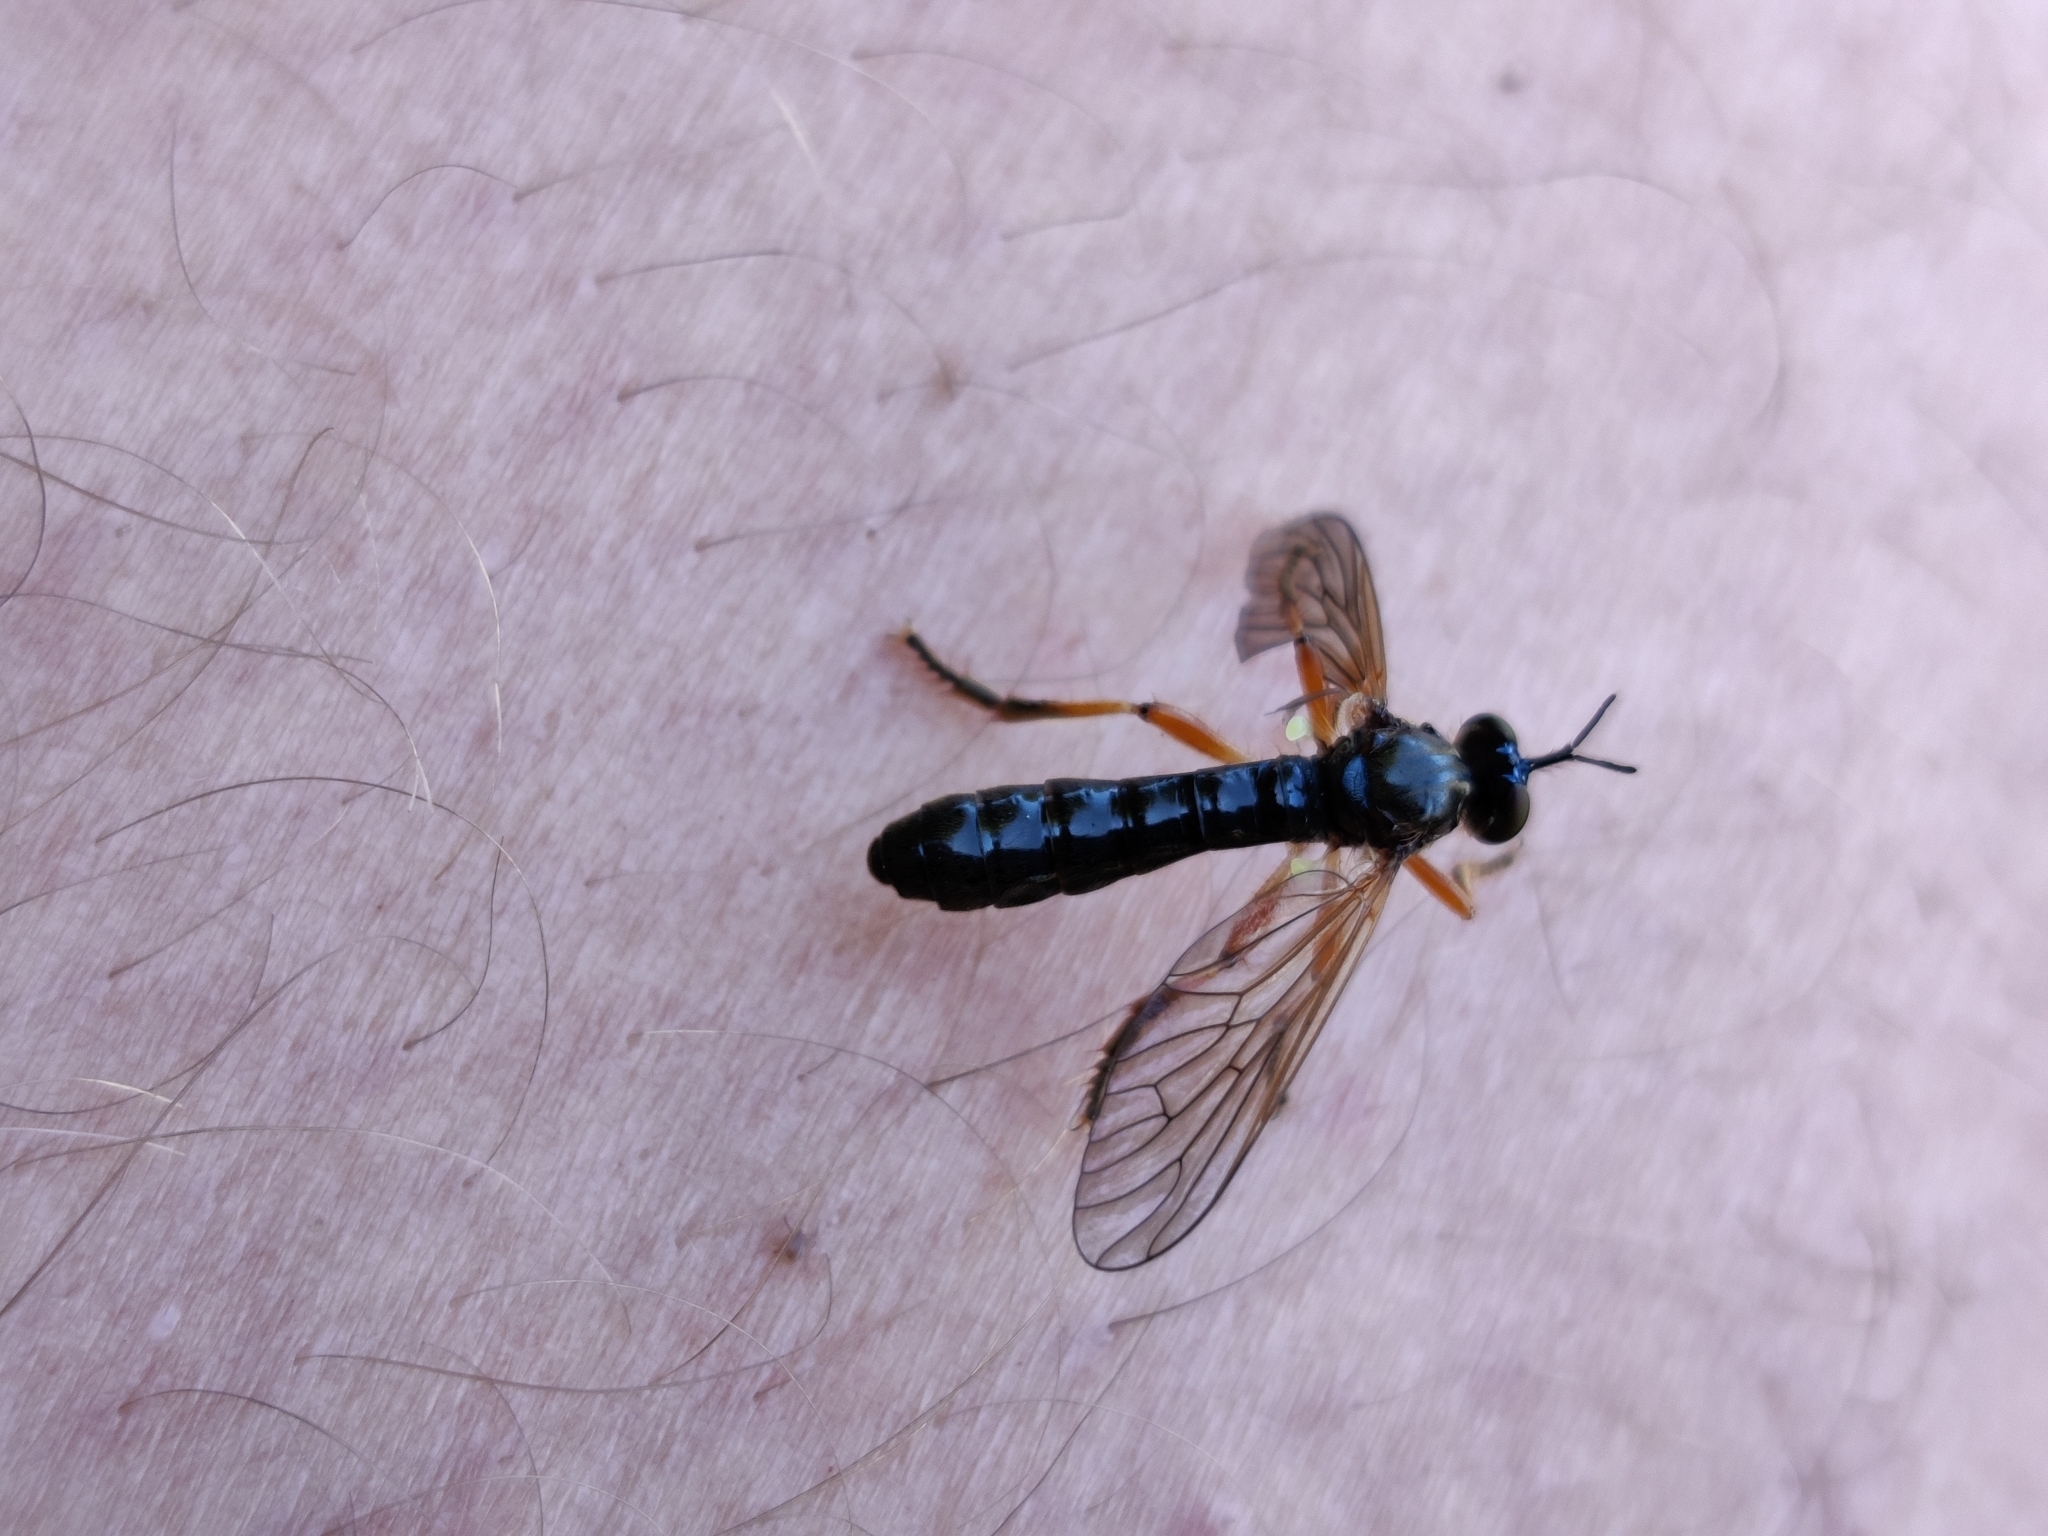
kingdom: Animalia
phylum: Arthropoda
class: Insecta
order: Diptera
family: Asilidae
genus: Dioctria
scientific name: Dioctria cothurnata
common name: Scarce red-legged robberfly
